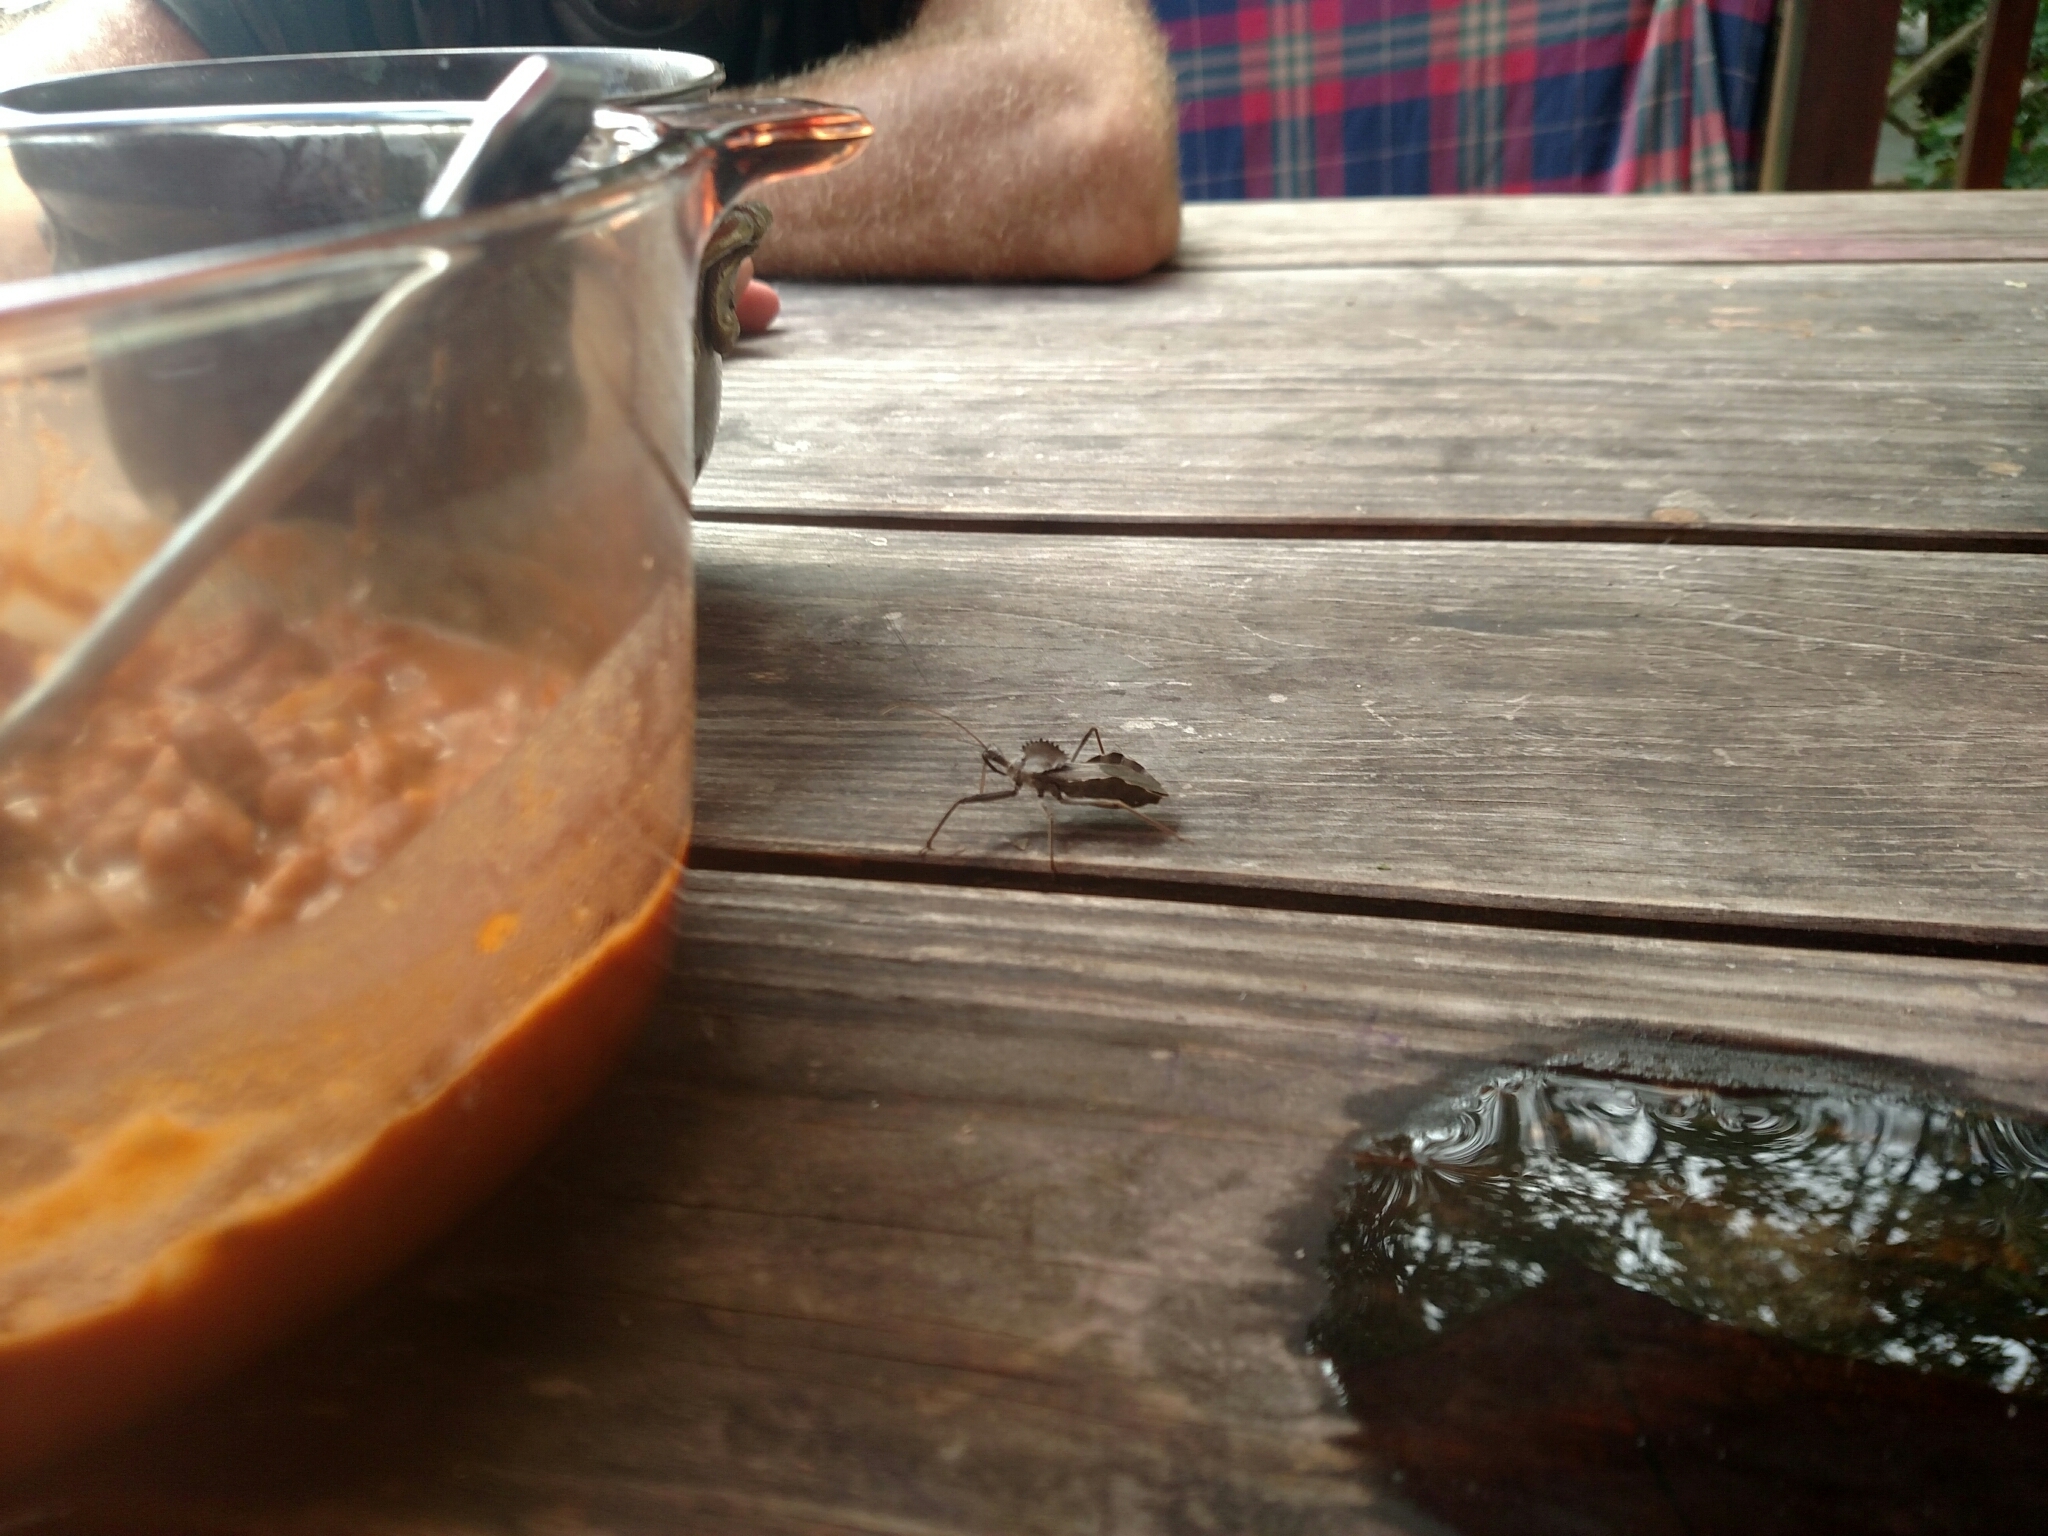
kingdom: Animalia
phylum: Arthropoda
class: Insecta
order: Hemiptera
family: Reduviidae
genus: Arilus
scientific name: Arilus cristatus
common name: North american wheel bug
